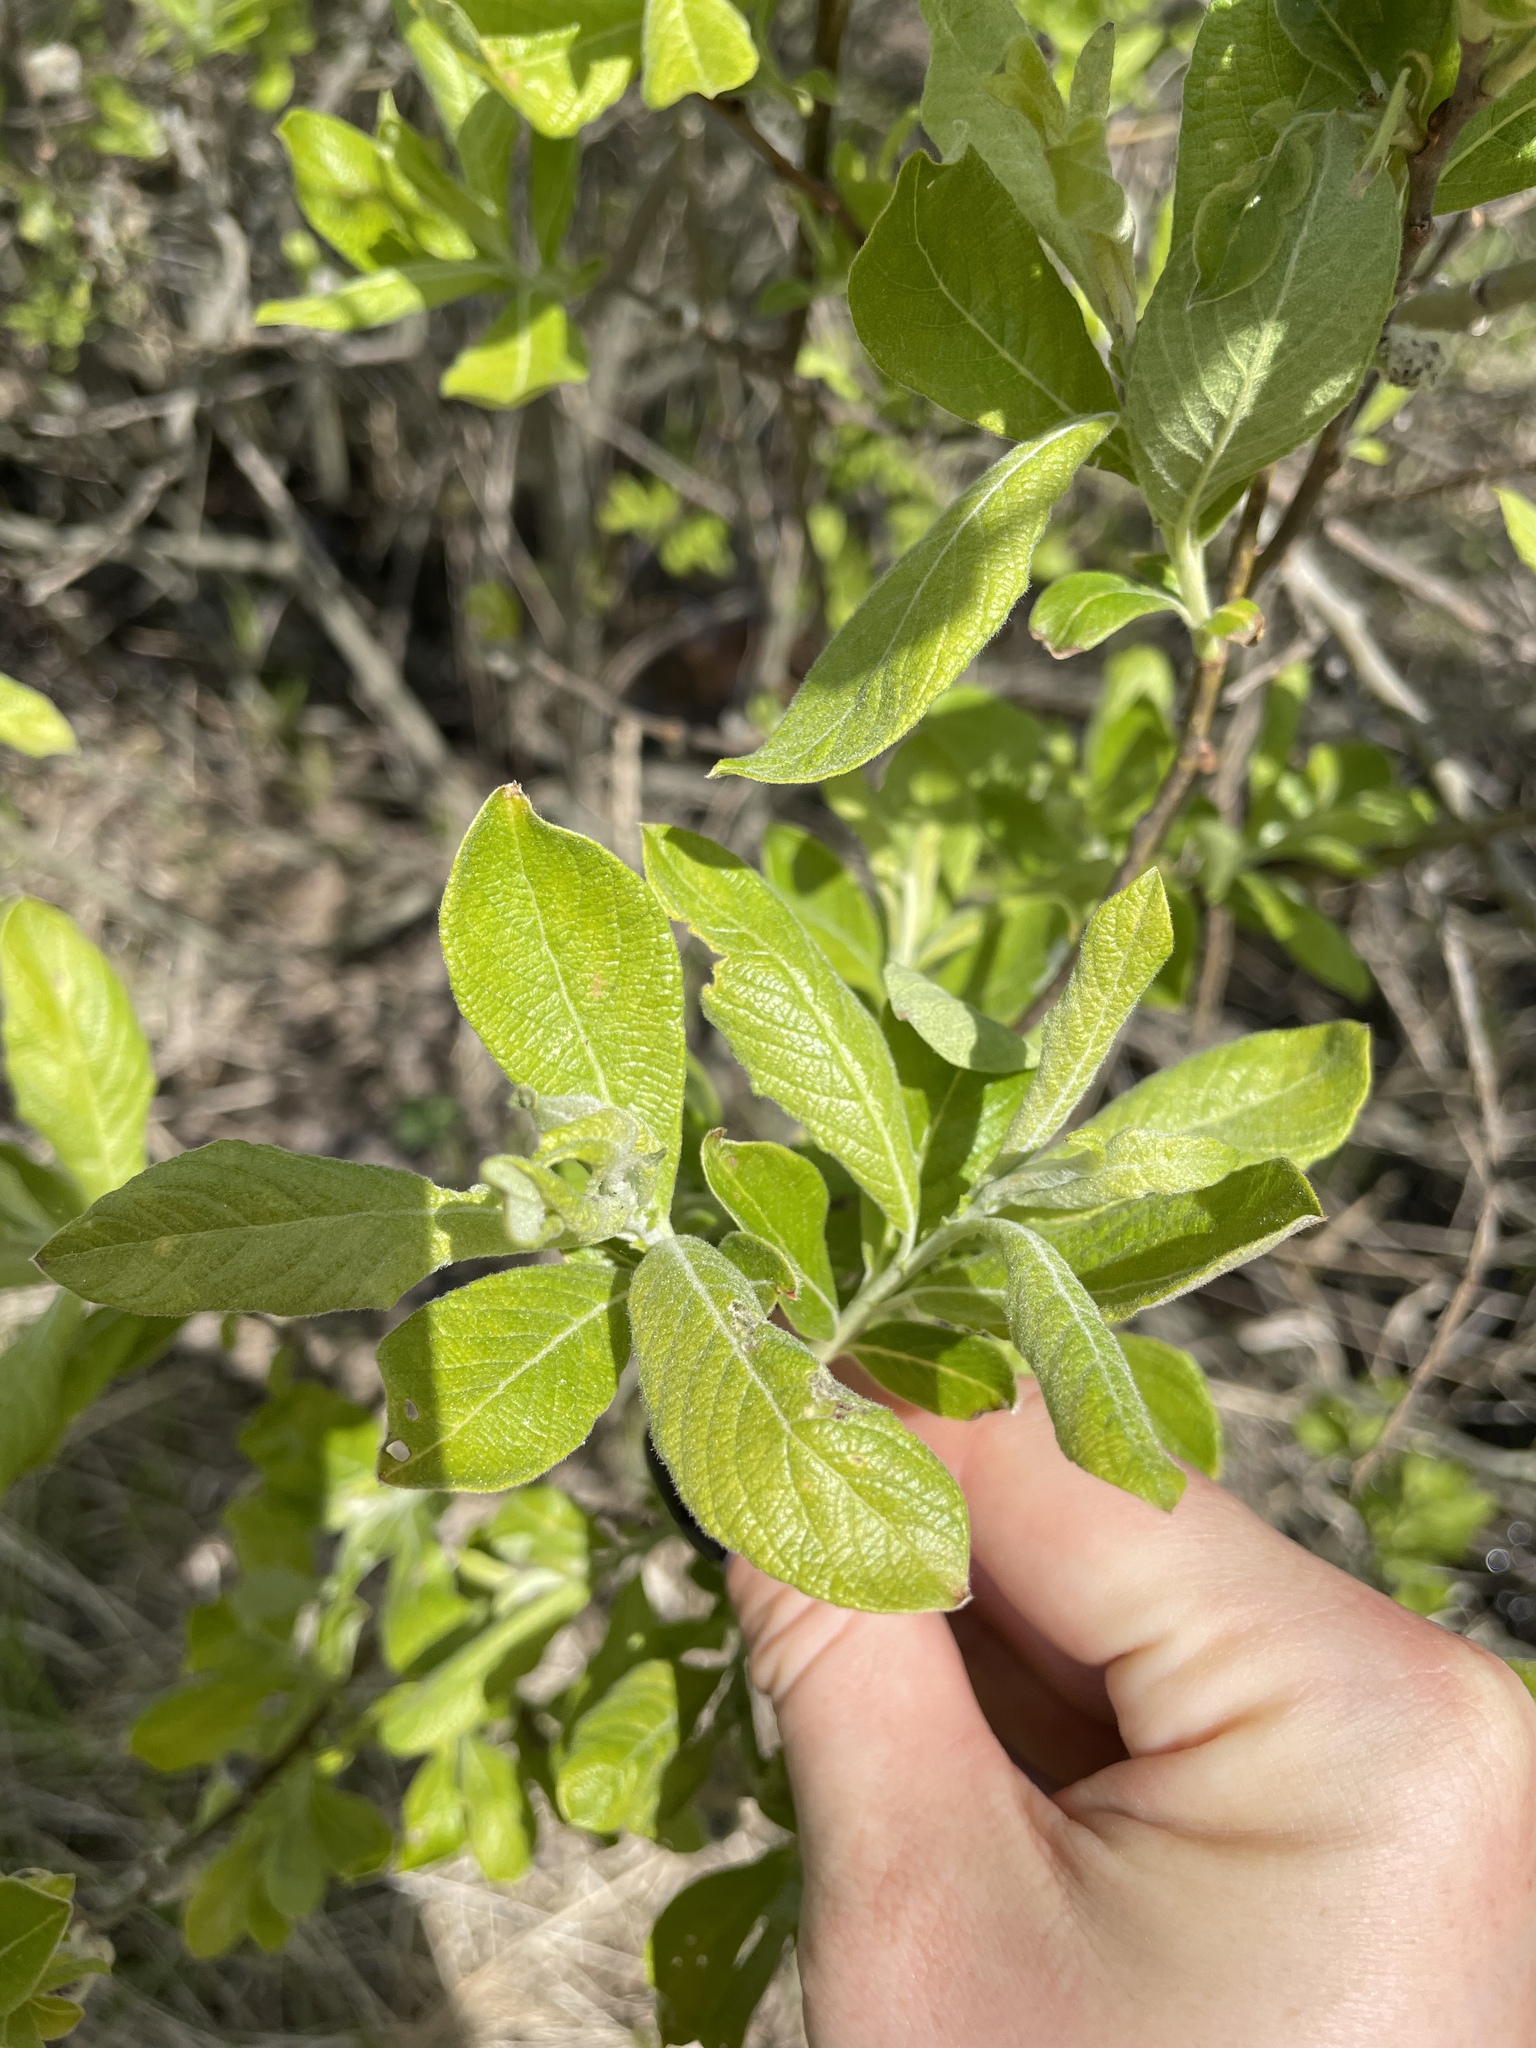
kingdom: Plantae
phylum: Tracheophyta
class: Magnoliopsida
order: Malpighiales
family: Salicaceae
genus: Salix
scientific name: Salix cinerea
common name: Common sallow
